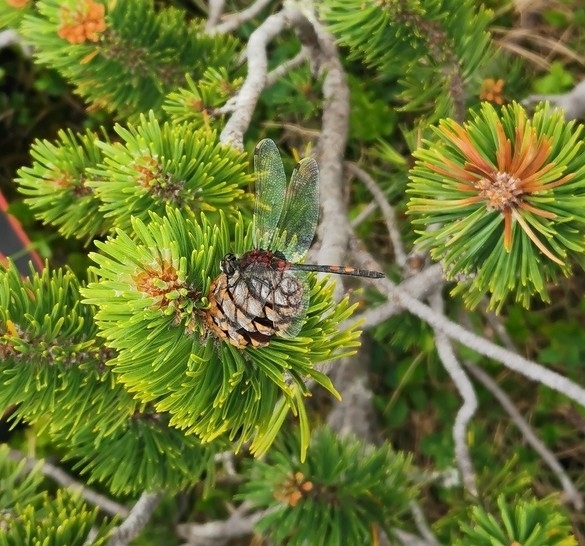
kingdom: Animalia
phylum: Arthropoda
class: Insecta
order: Odonata
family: Libellulidae
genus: Leucorrhinia
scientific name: Leucorrhinia dubia
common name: White-faced darter
